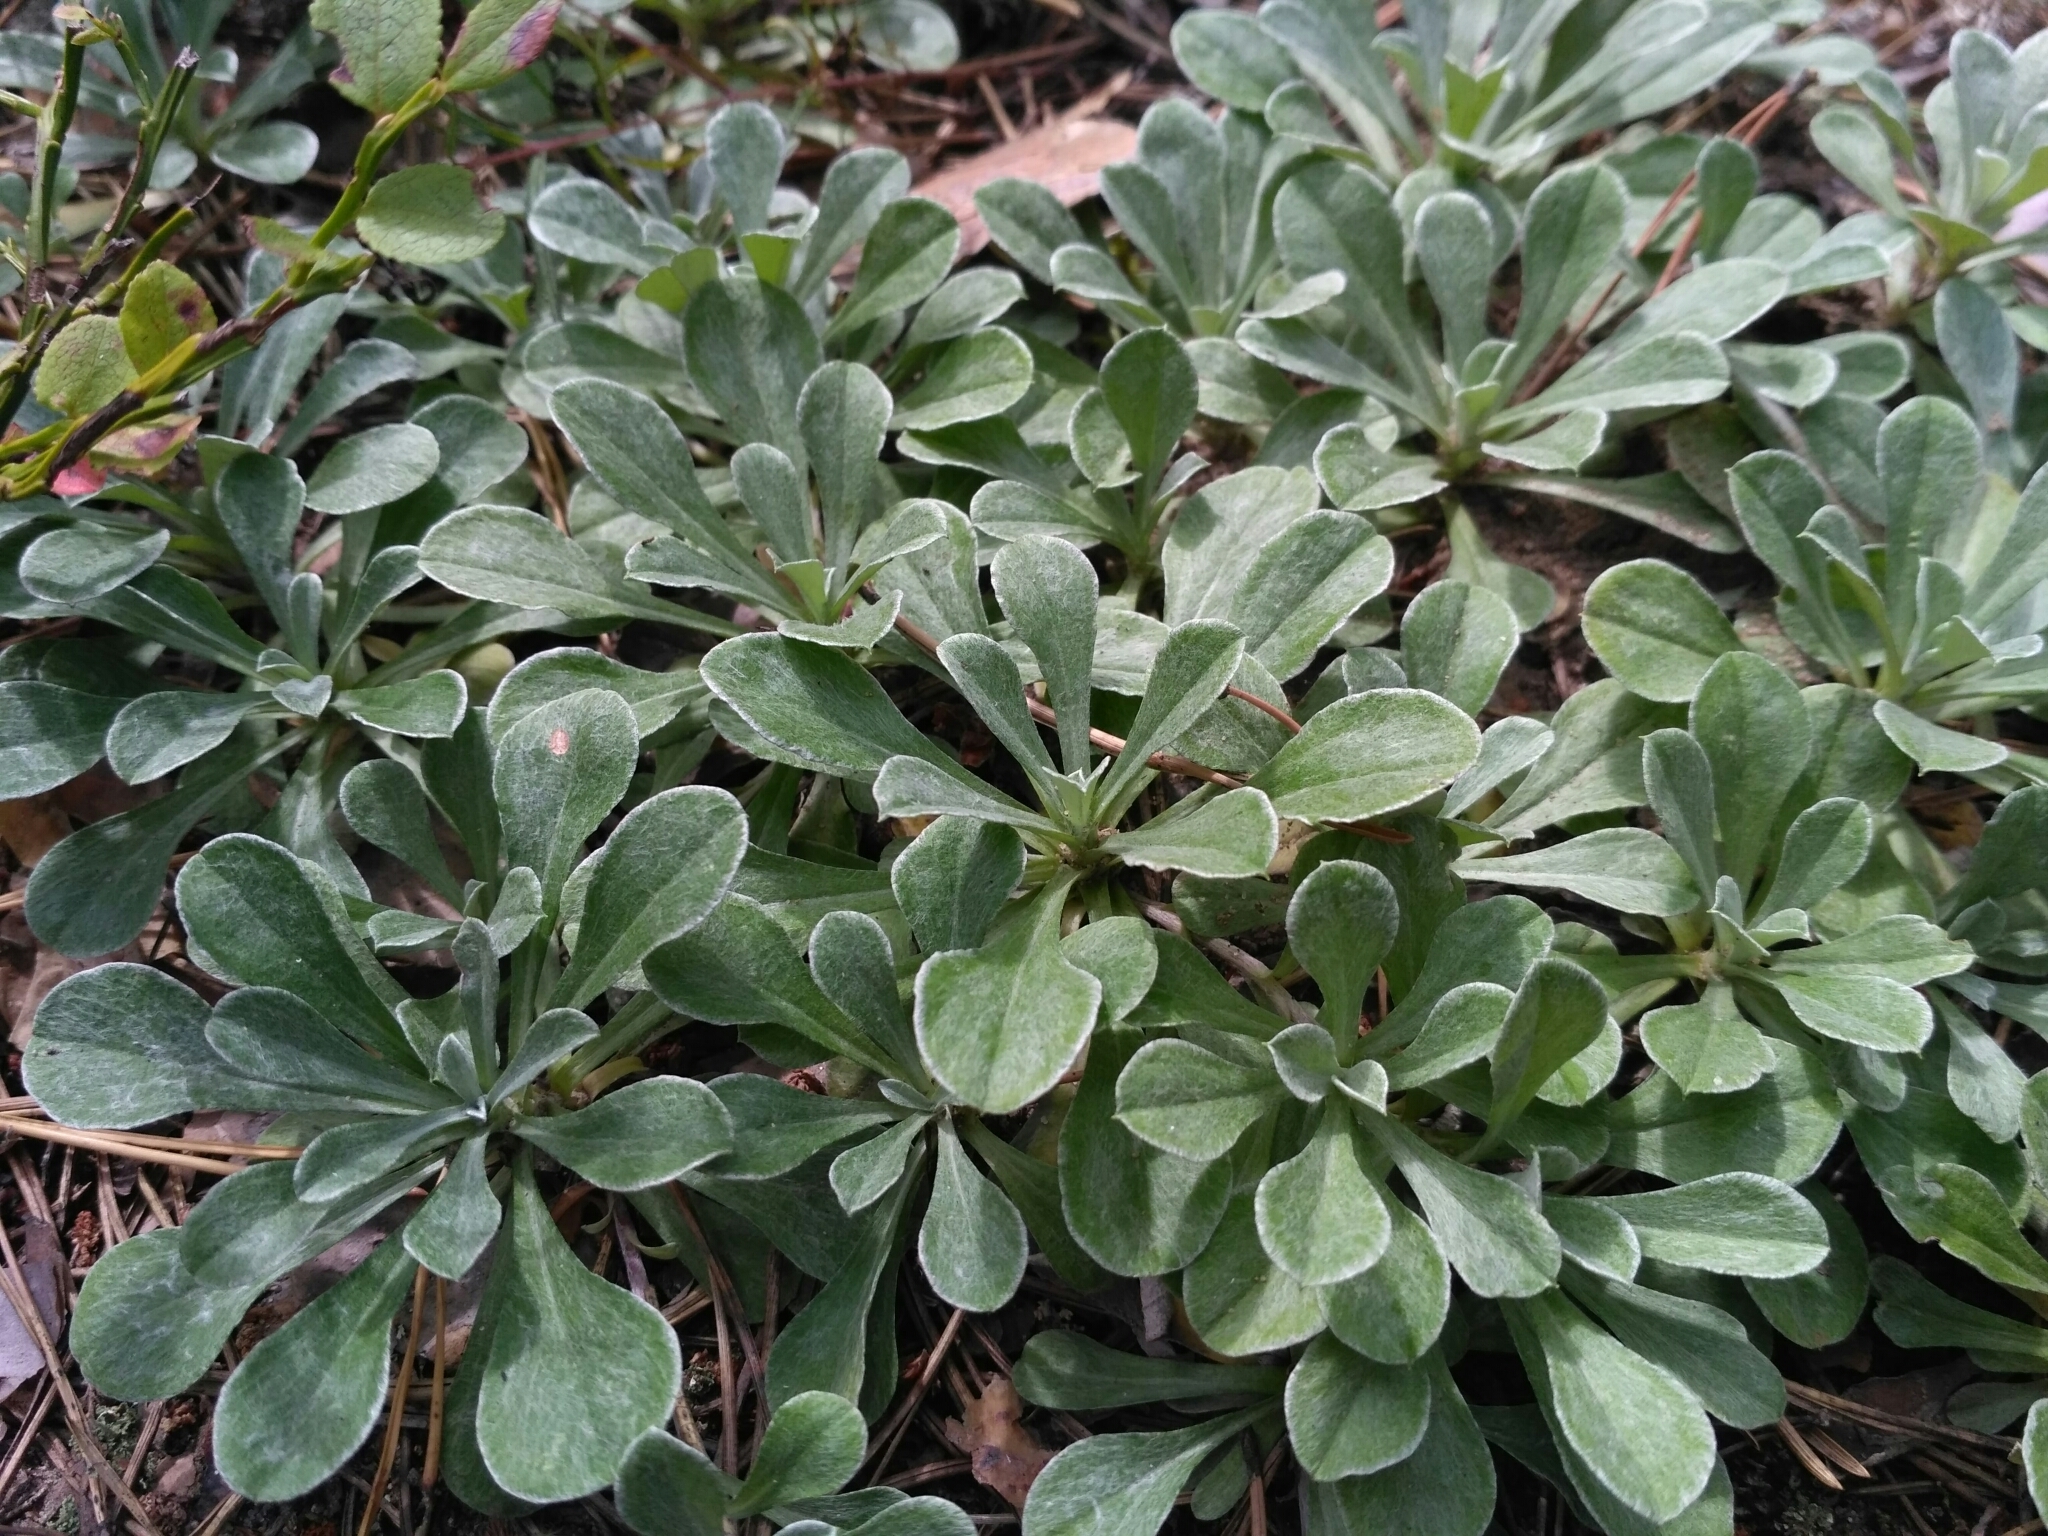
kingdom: Plantae
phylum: Tracheophyta
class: Magnoliopsida
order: Asterales
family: Asteraceae
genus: Antennaria
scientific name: Antennaria dioica
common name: Mountain everlasting
